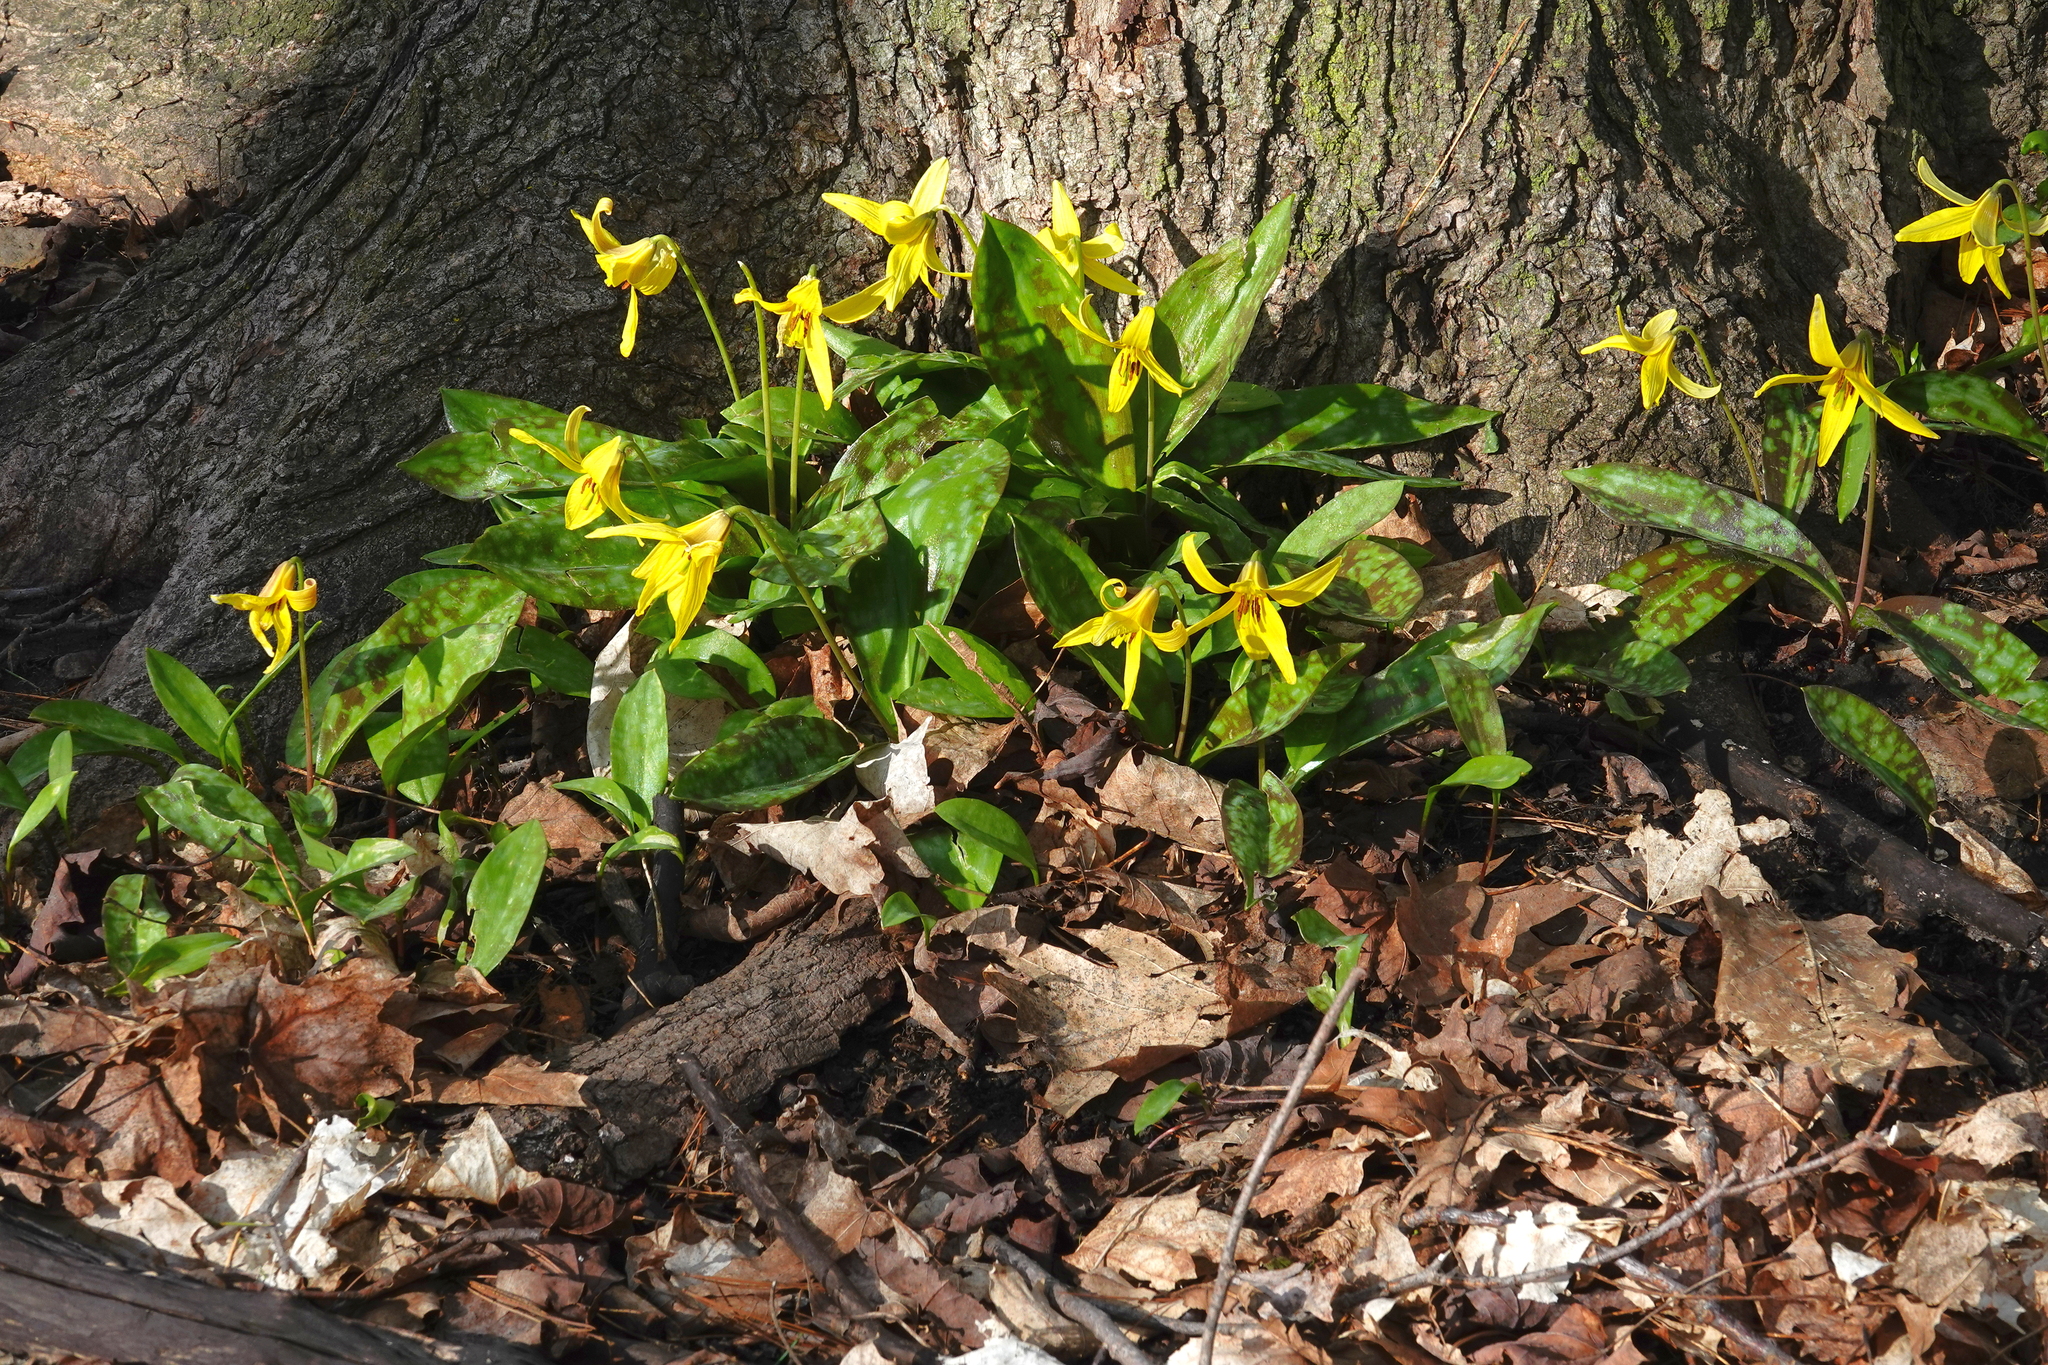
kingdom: Plantae
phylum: Tracheophyta
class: Liliopsida
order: Liliales
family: Liliaceae
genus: Erythronium
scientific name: Erythronium americanum
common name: Yellow adder's-tongue
